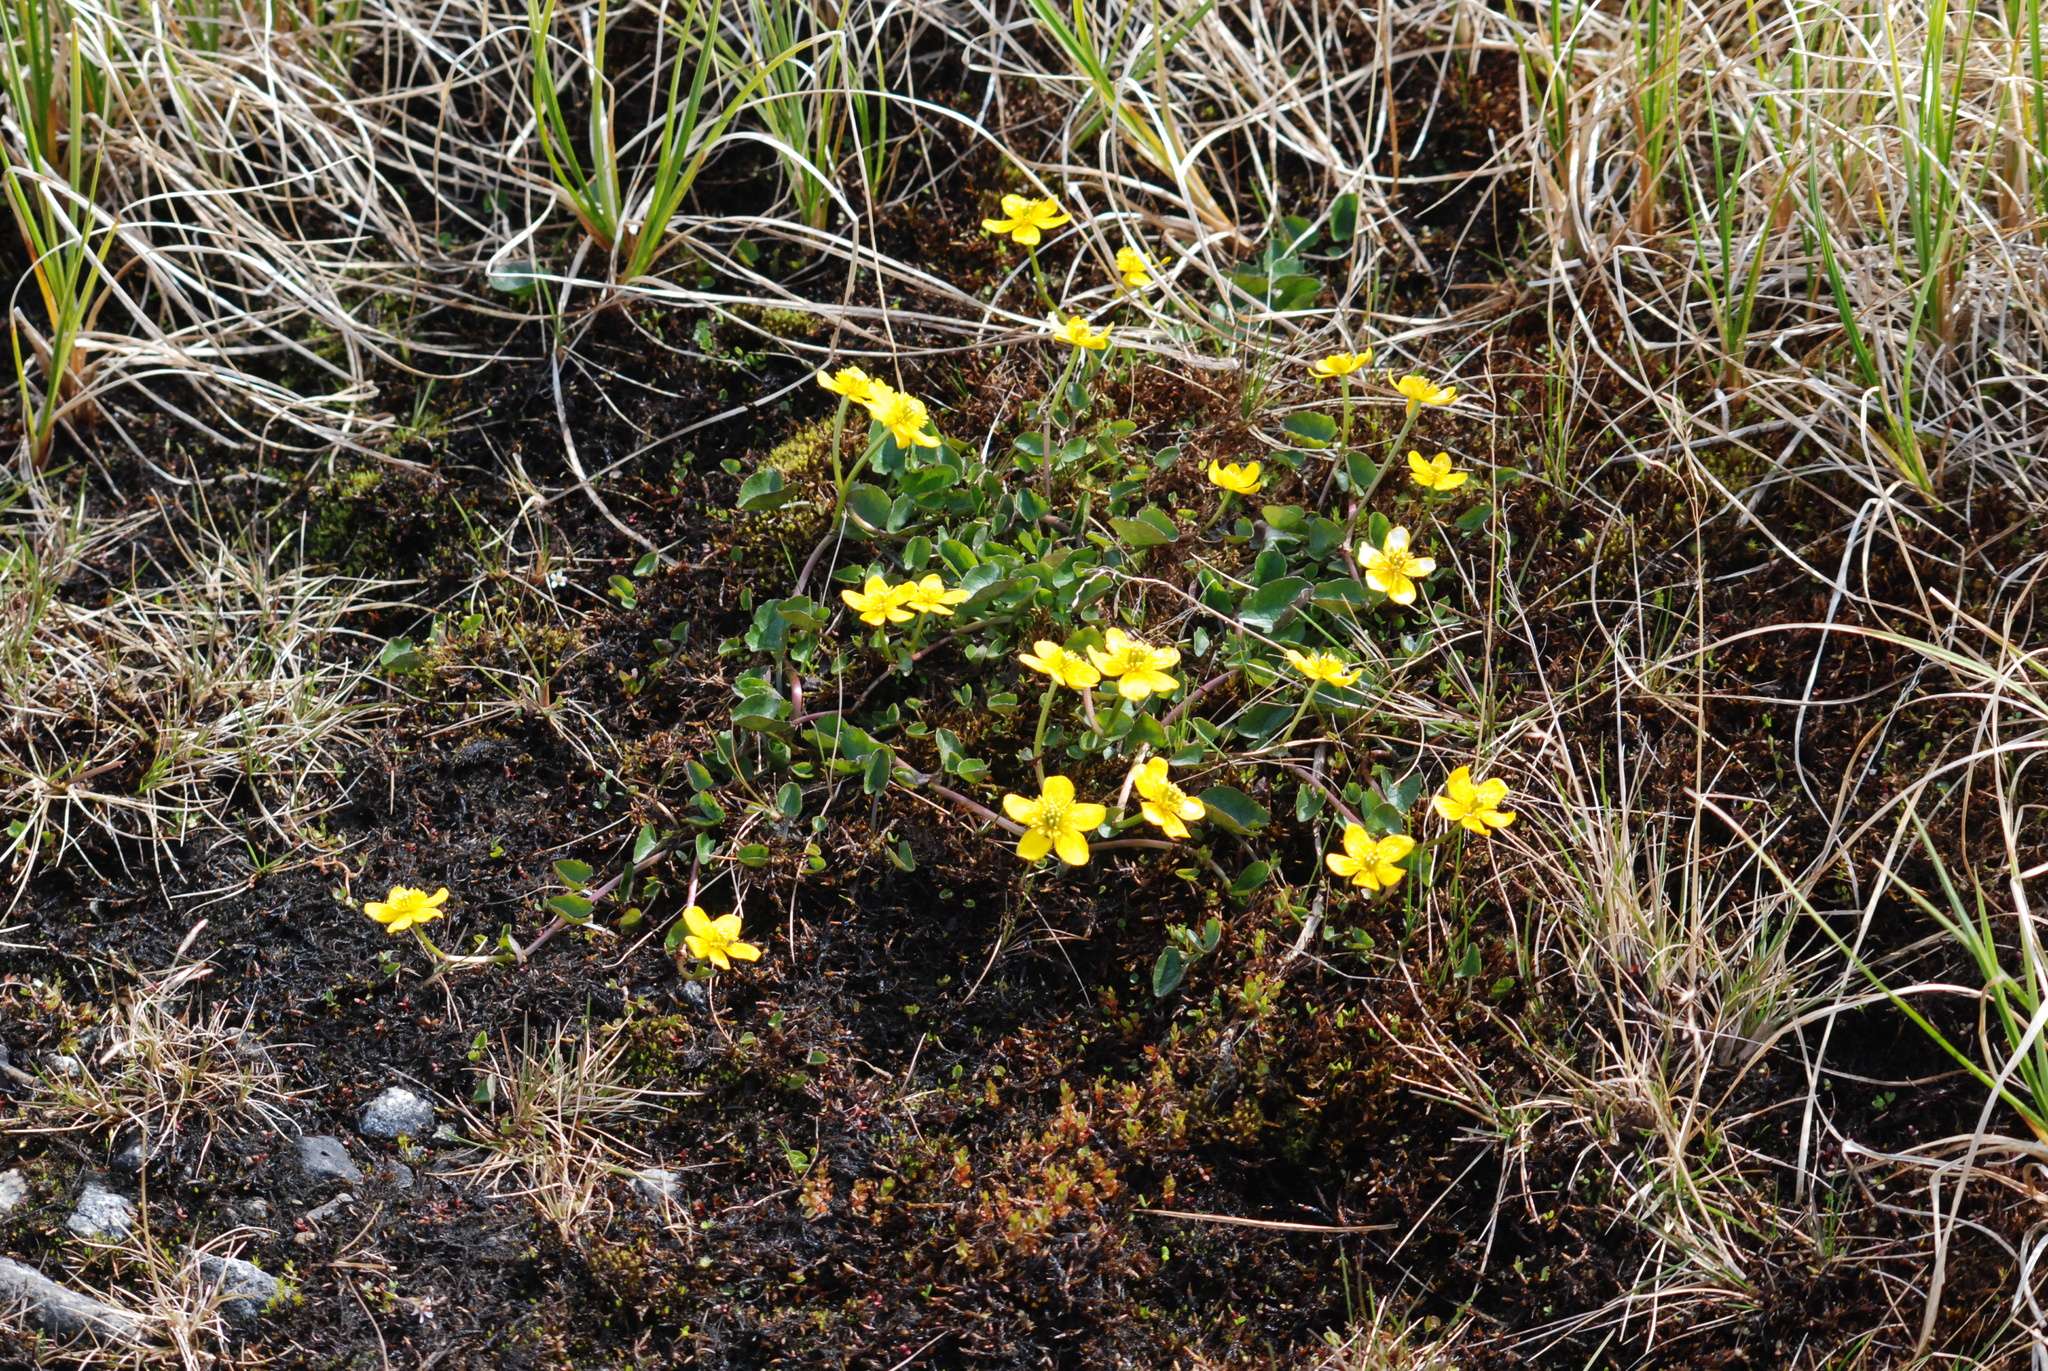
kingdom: Plantae
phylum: Tracheophyta
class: Magnoliopsida
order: Ranunculales
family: Ranunculaceae
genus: Caltha
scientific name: Caltha palustris
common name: Marsh marigold
